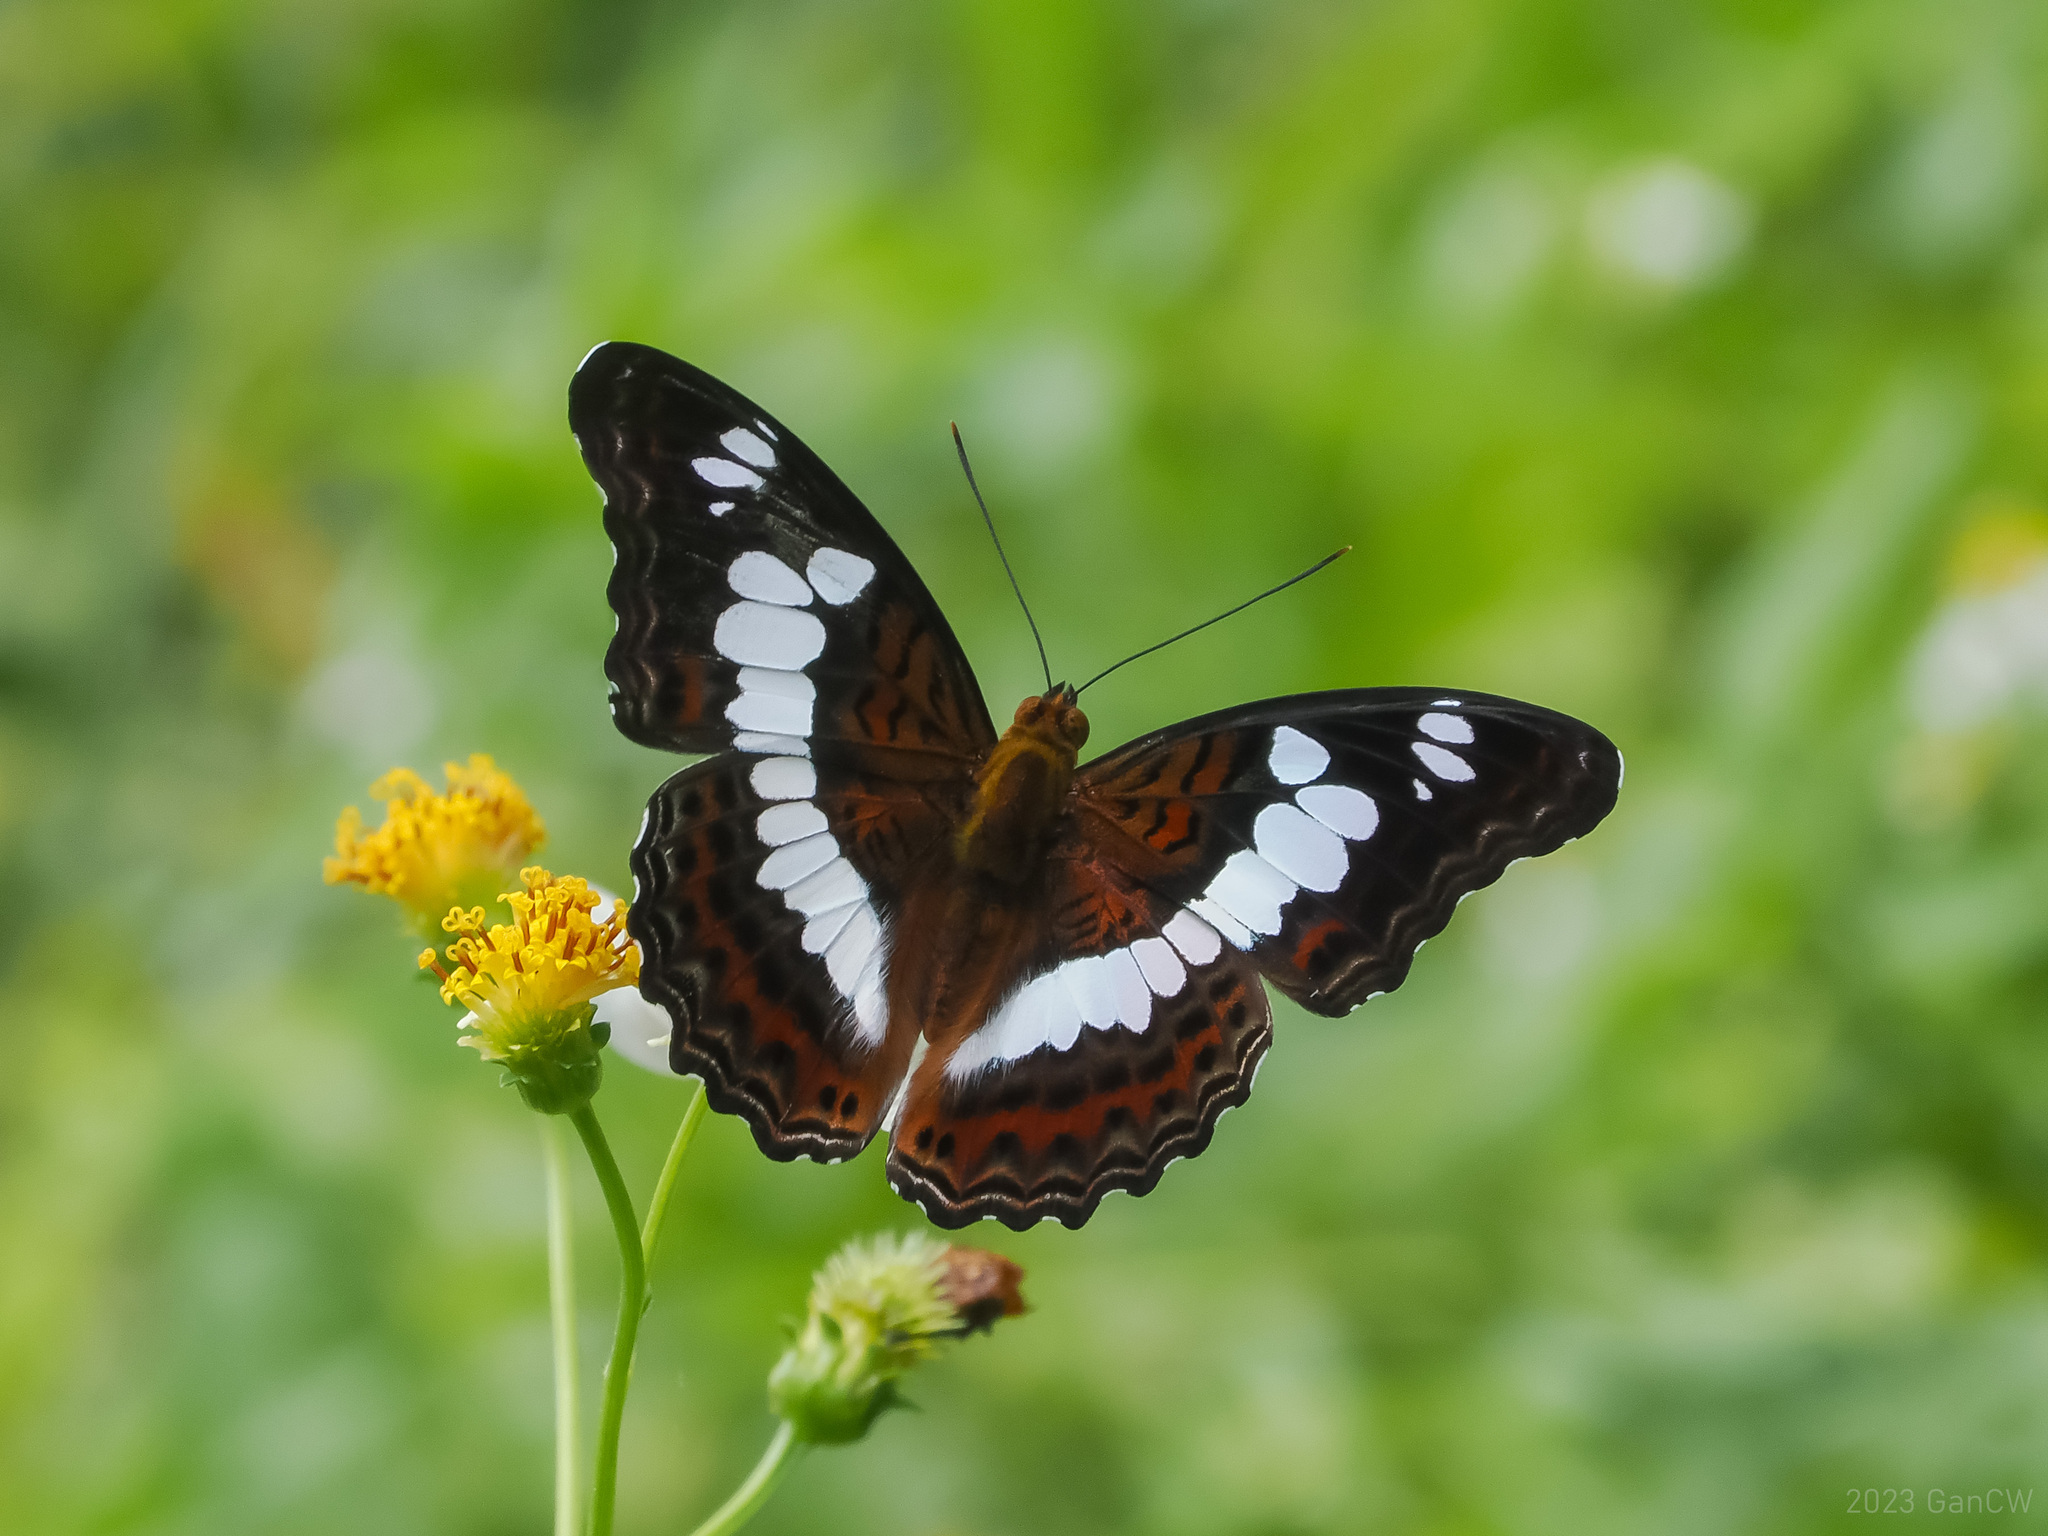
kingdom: Animalia
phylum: Arthropoda
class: Insecta
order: Lepidoptera
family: Nymphalidae
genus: Limenitis
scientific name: Limenitis Moduza procris
